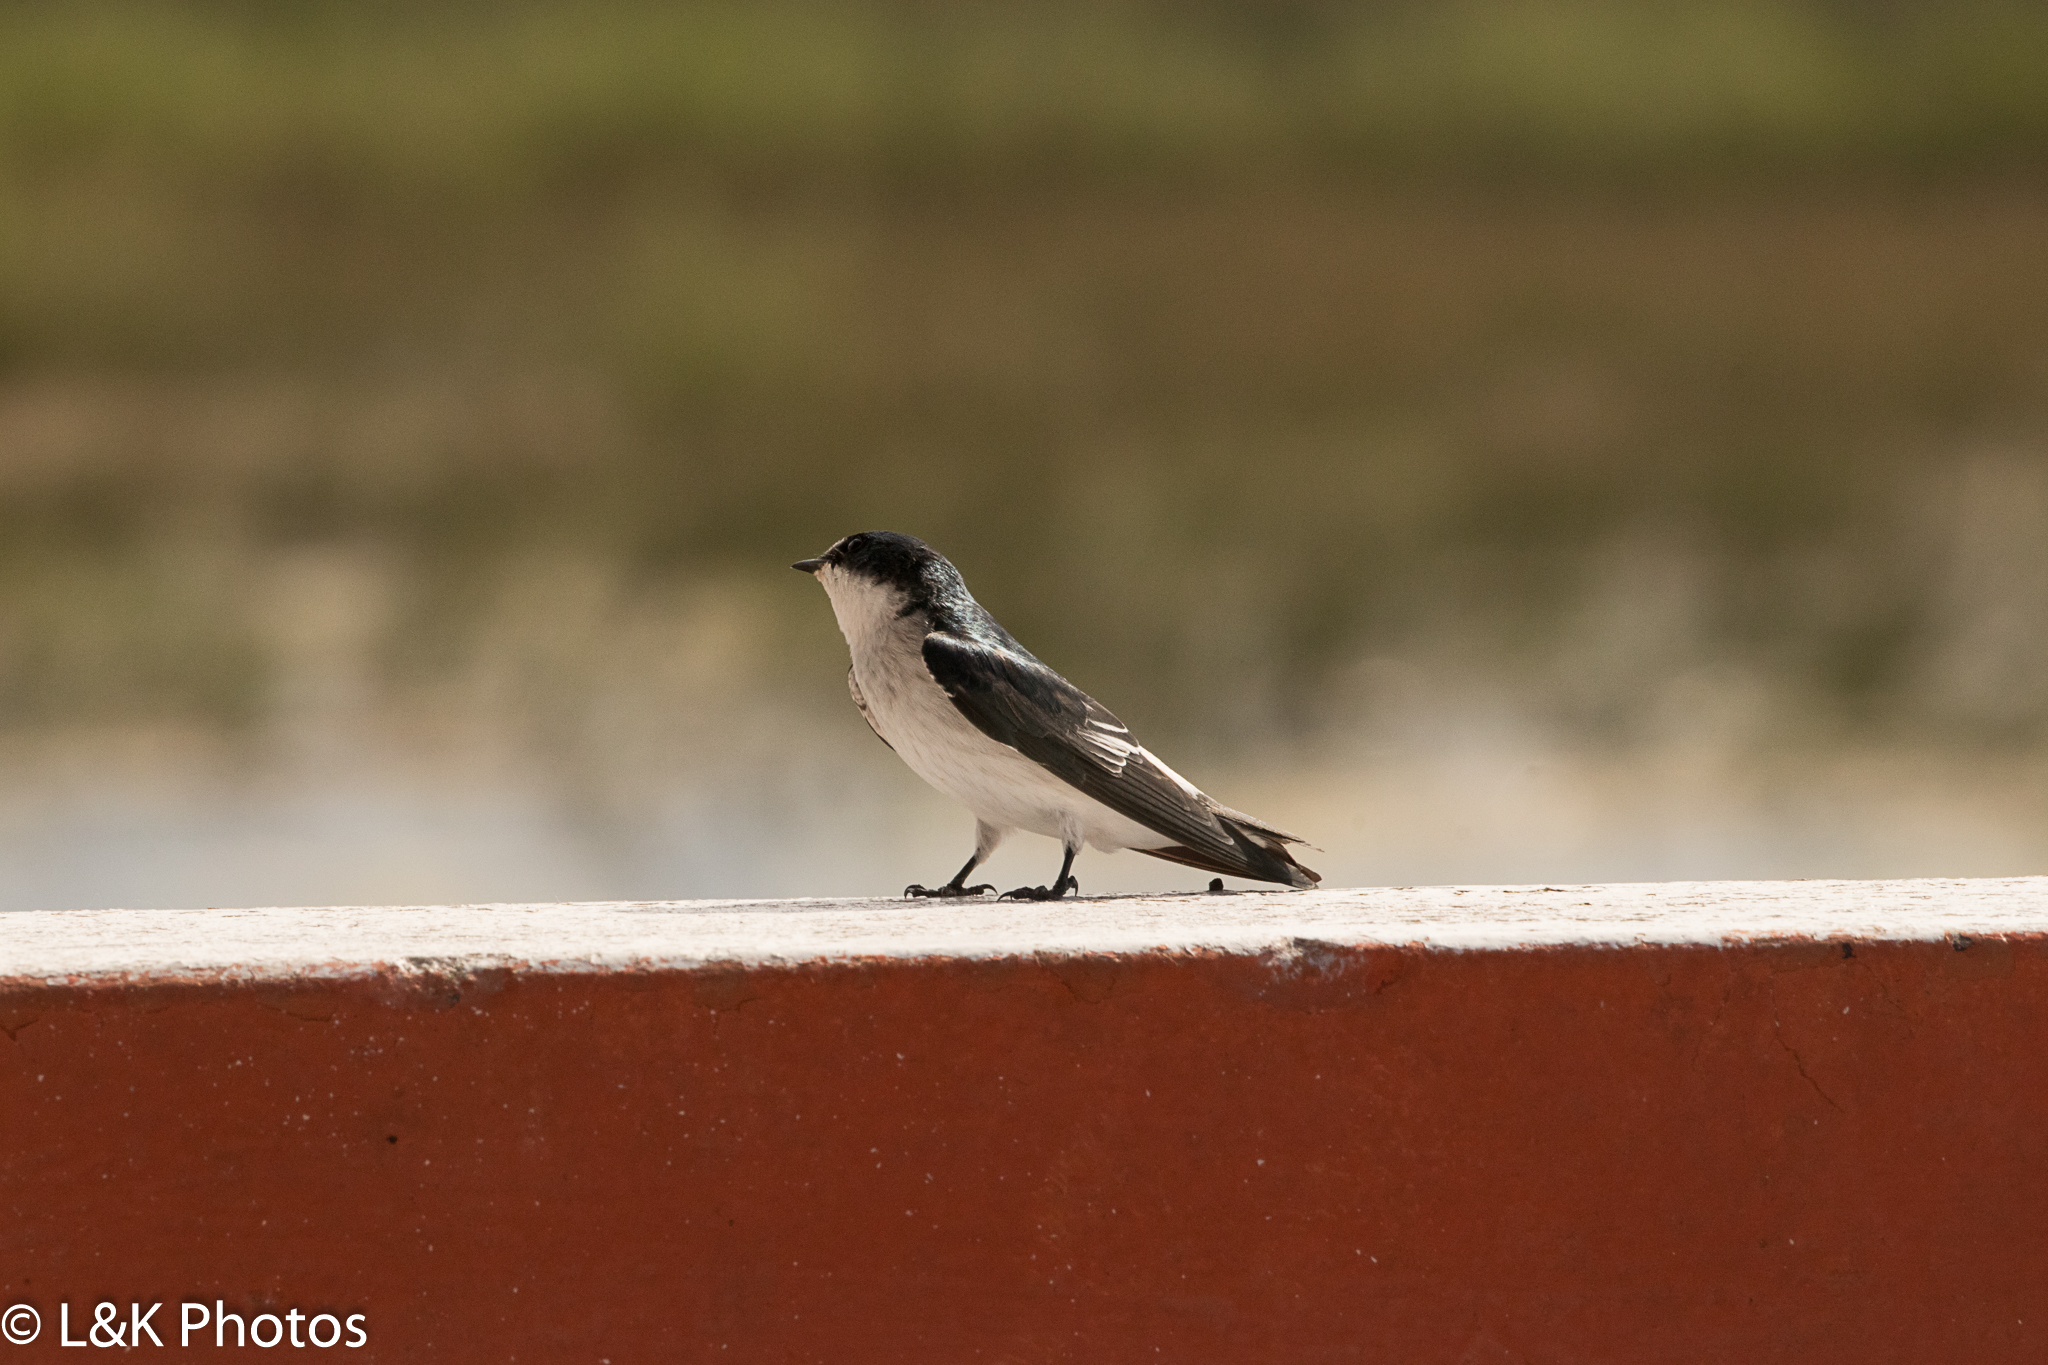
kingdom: Animalia
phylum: Chordata
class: Aves
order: Passeriformes
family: Hirundinidae
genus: Tachycineta
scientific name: Tachycineta albilinea
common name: Mangrove swallow
